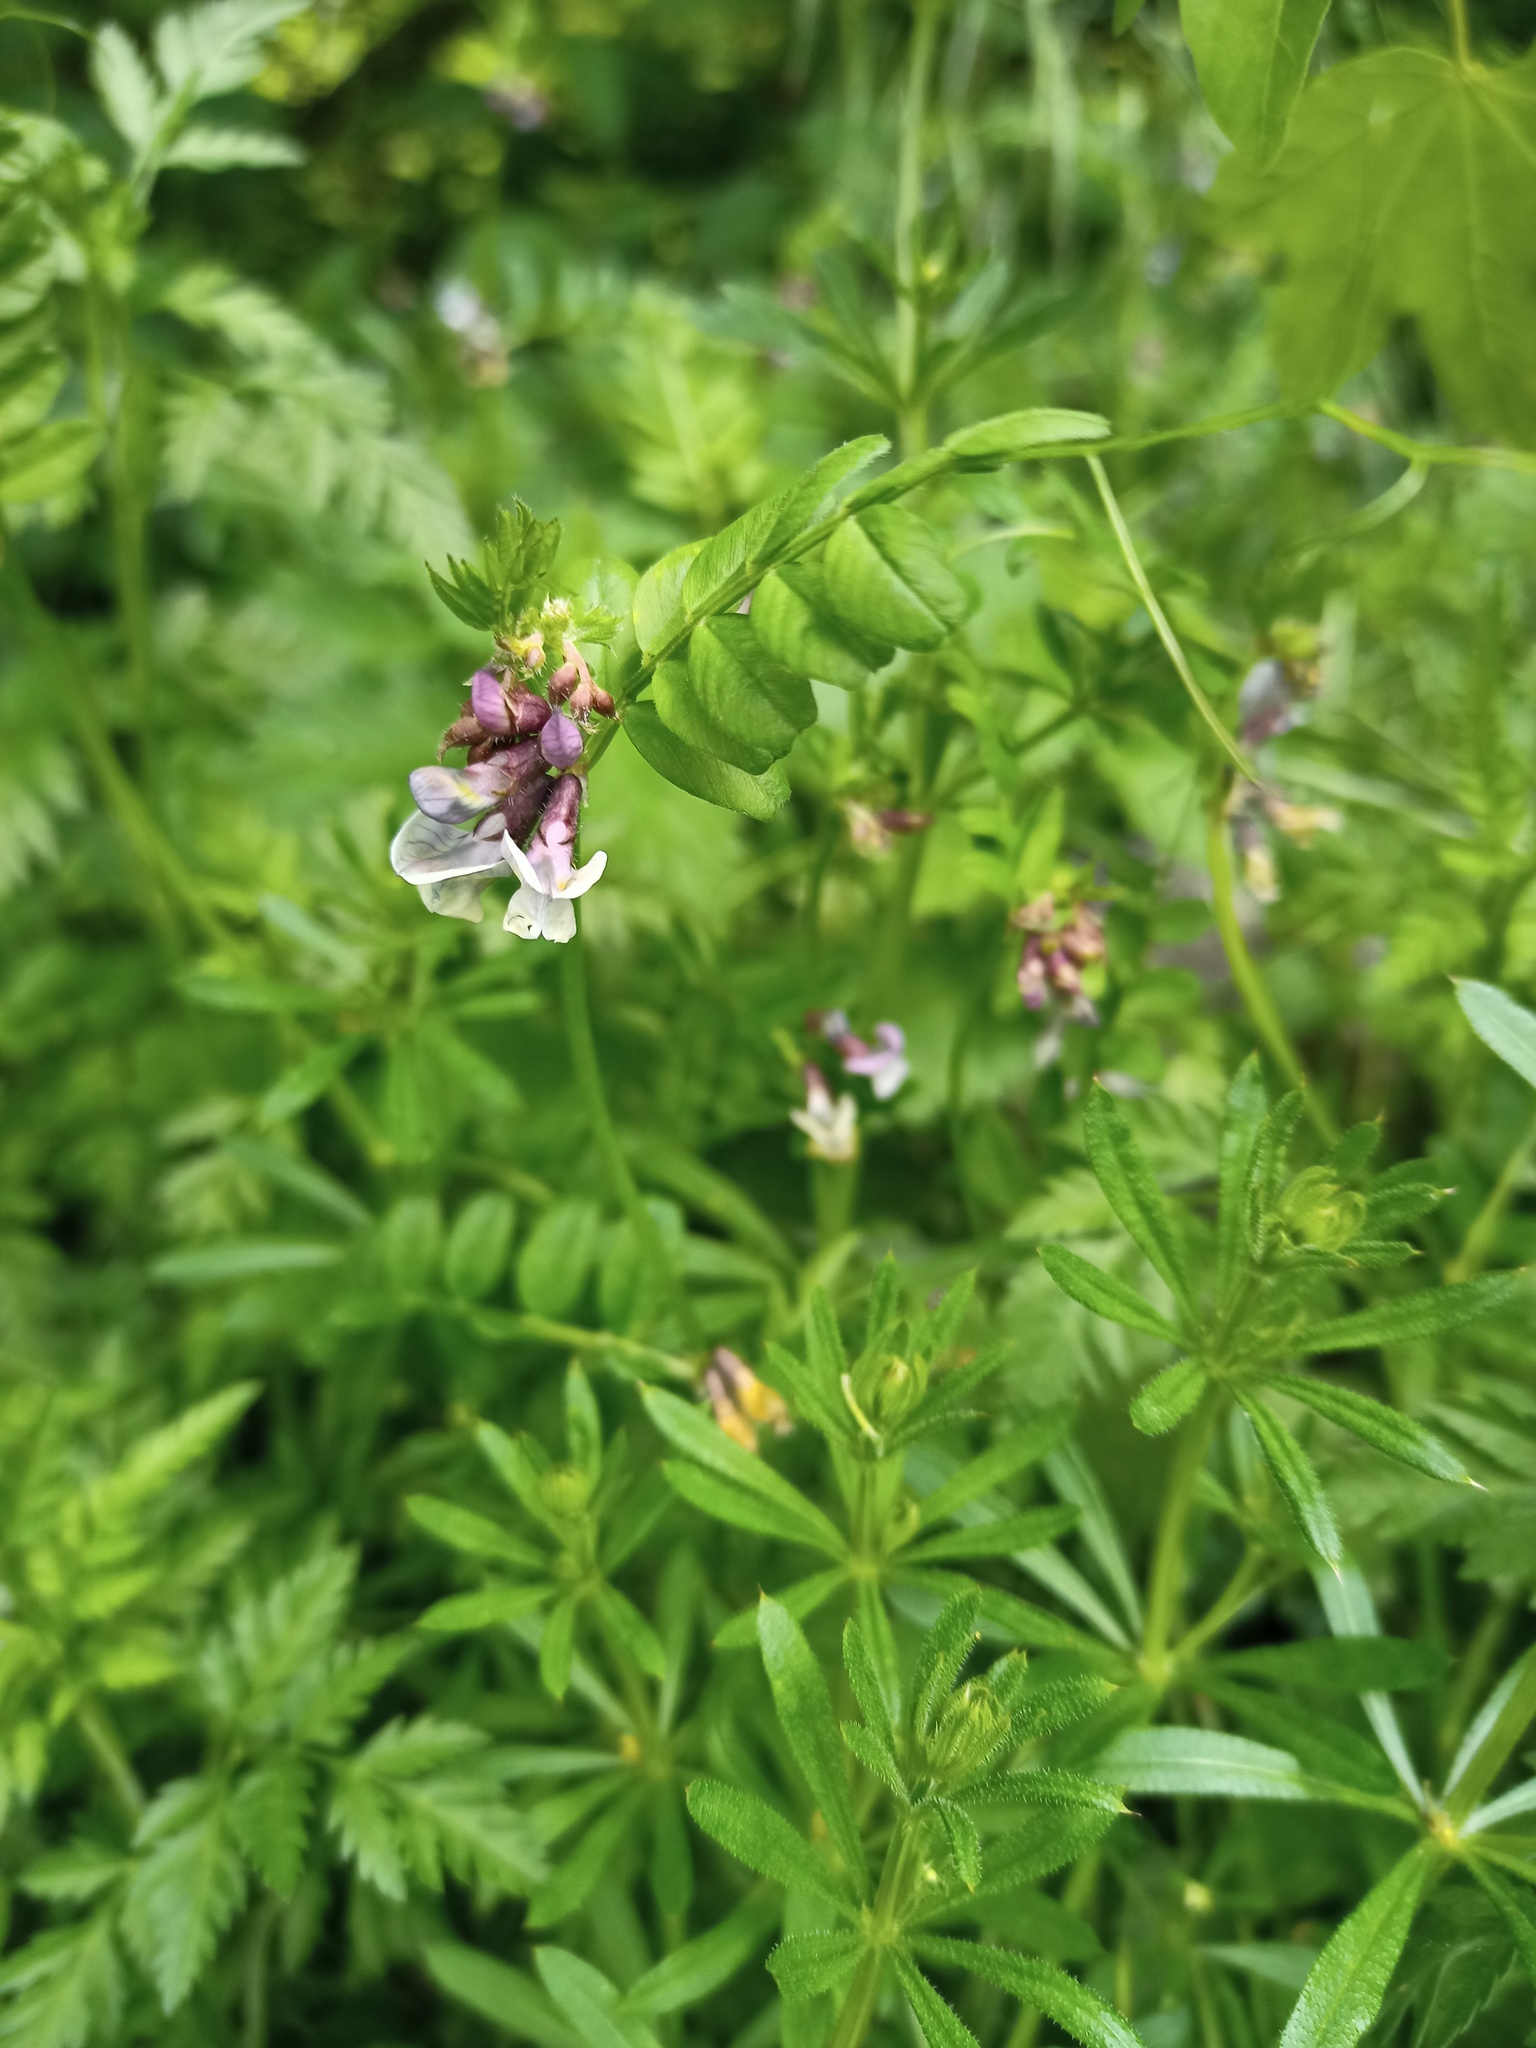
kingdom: Plantae
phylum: Tracheophyta
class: Magnoliopsida
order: Fabales
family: Fabaceae
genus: Vicia
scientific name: Vicia sepium
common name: Bush vetch
